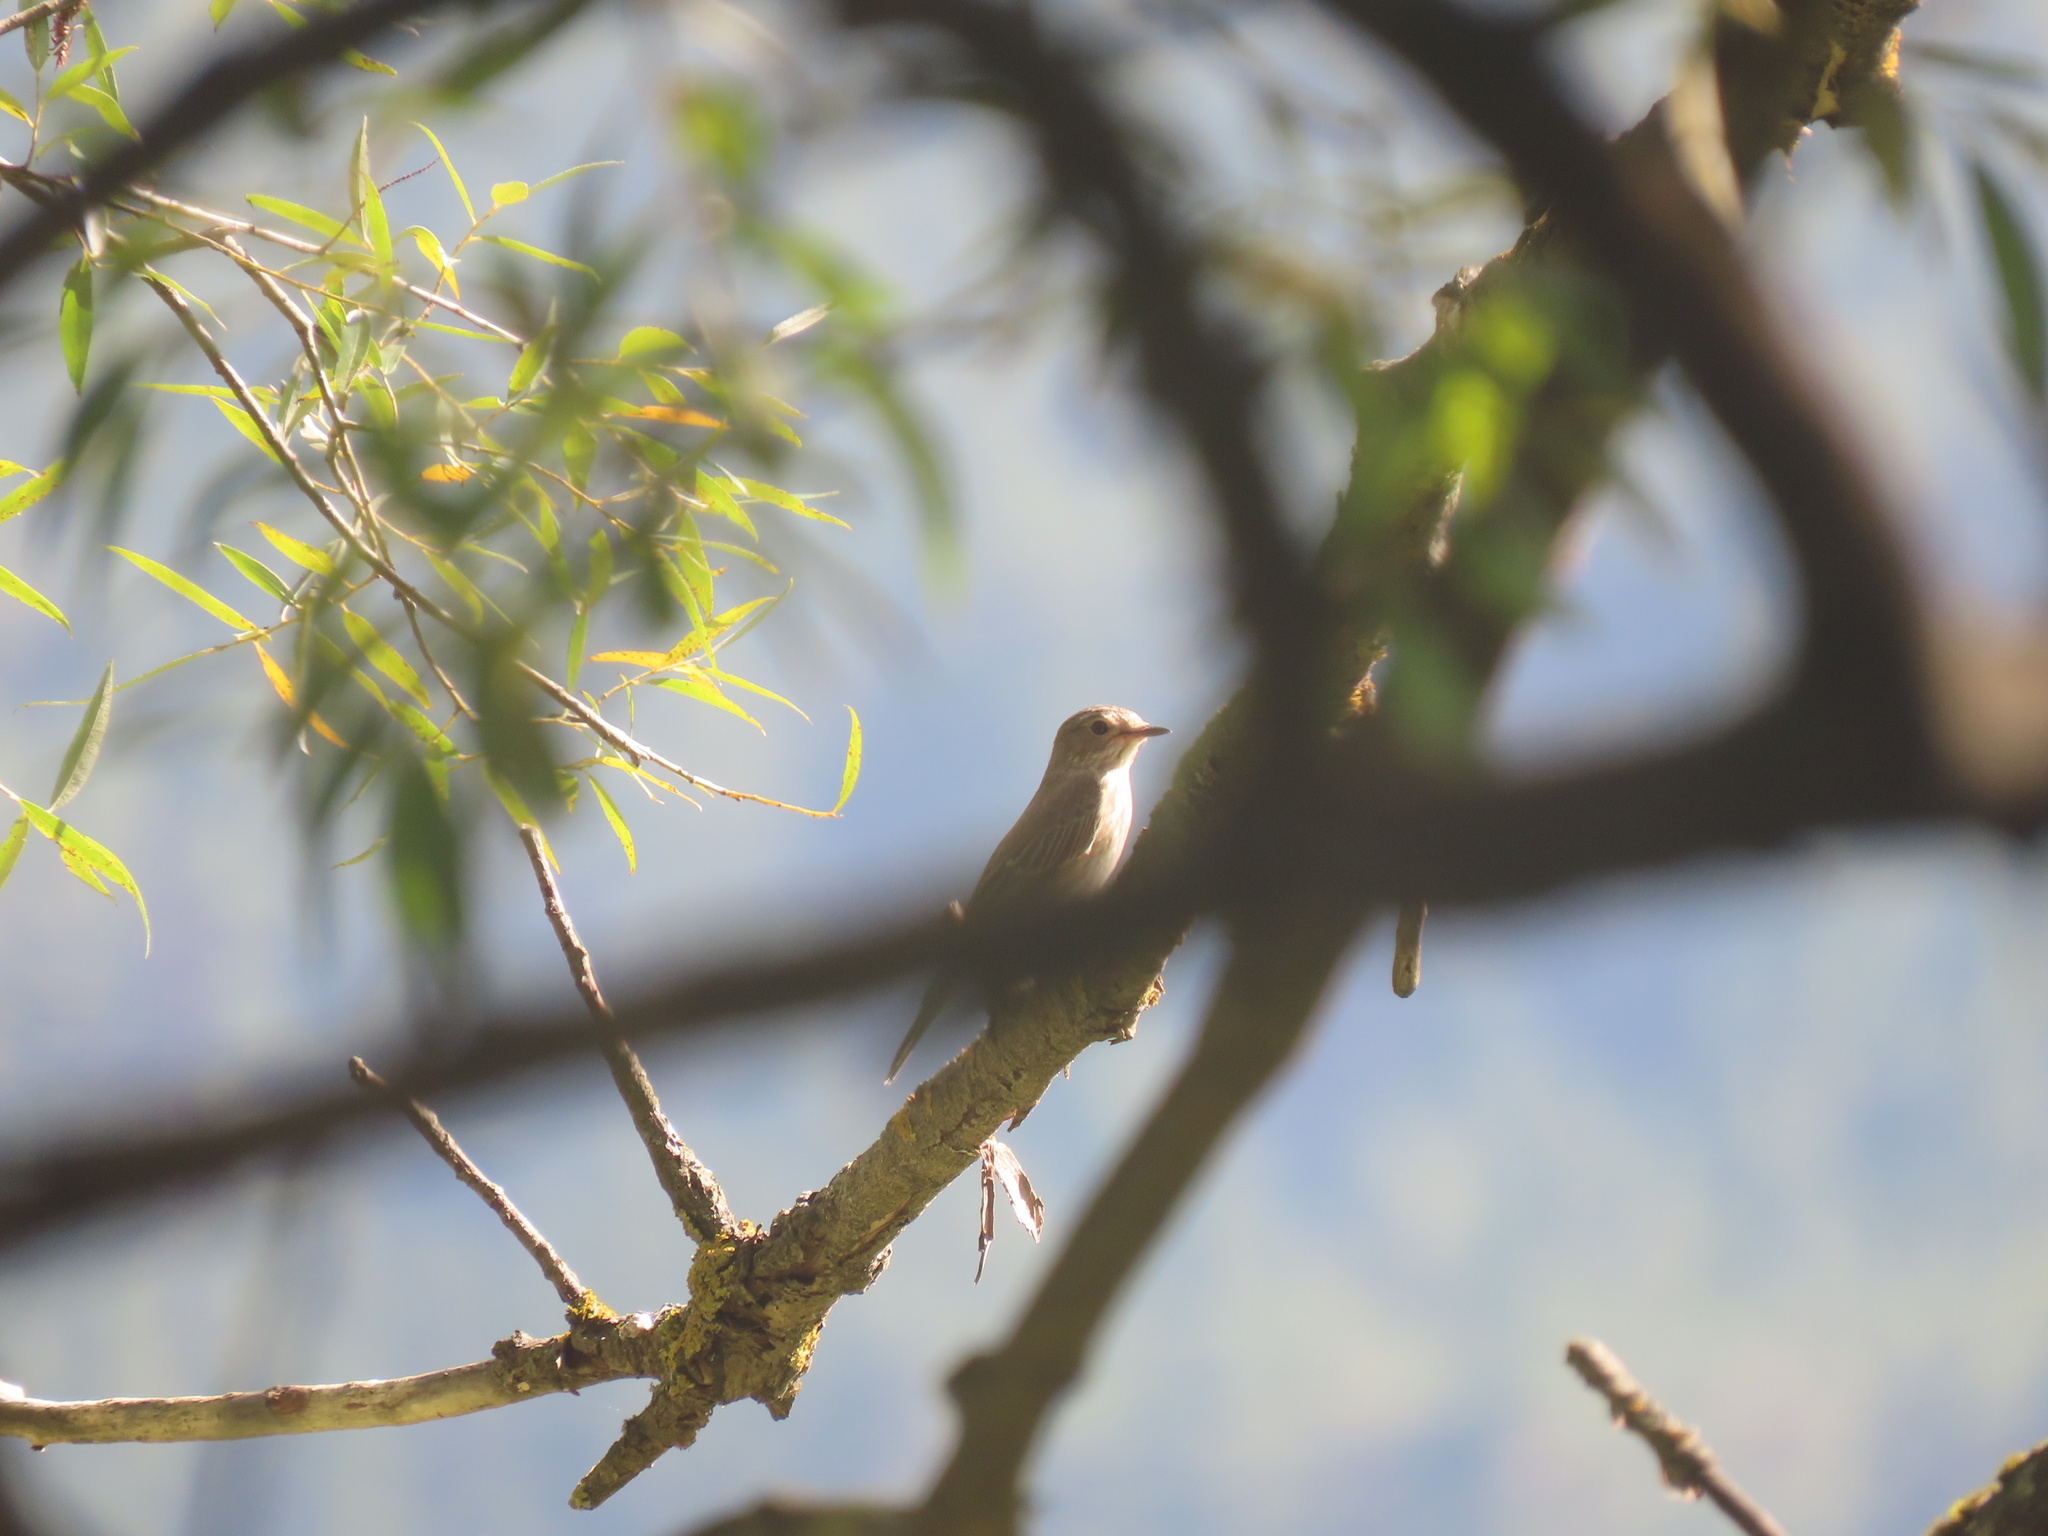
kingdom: Animalia
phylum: Chordata
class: Aves
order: Passeriformes
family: Muscicapidae
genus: Muscicapa
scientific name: Muscicapa striata
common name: Spotted flycatcher
